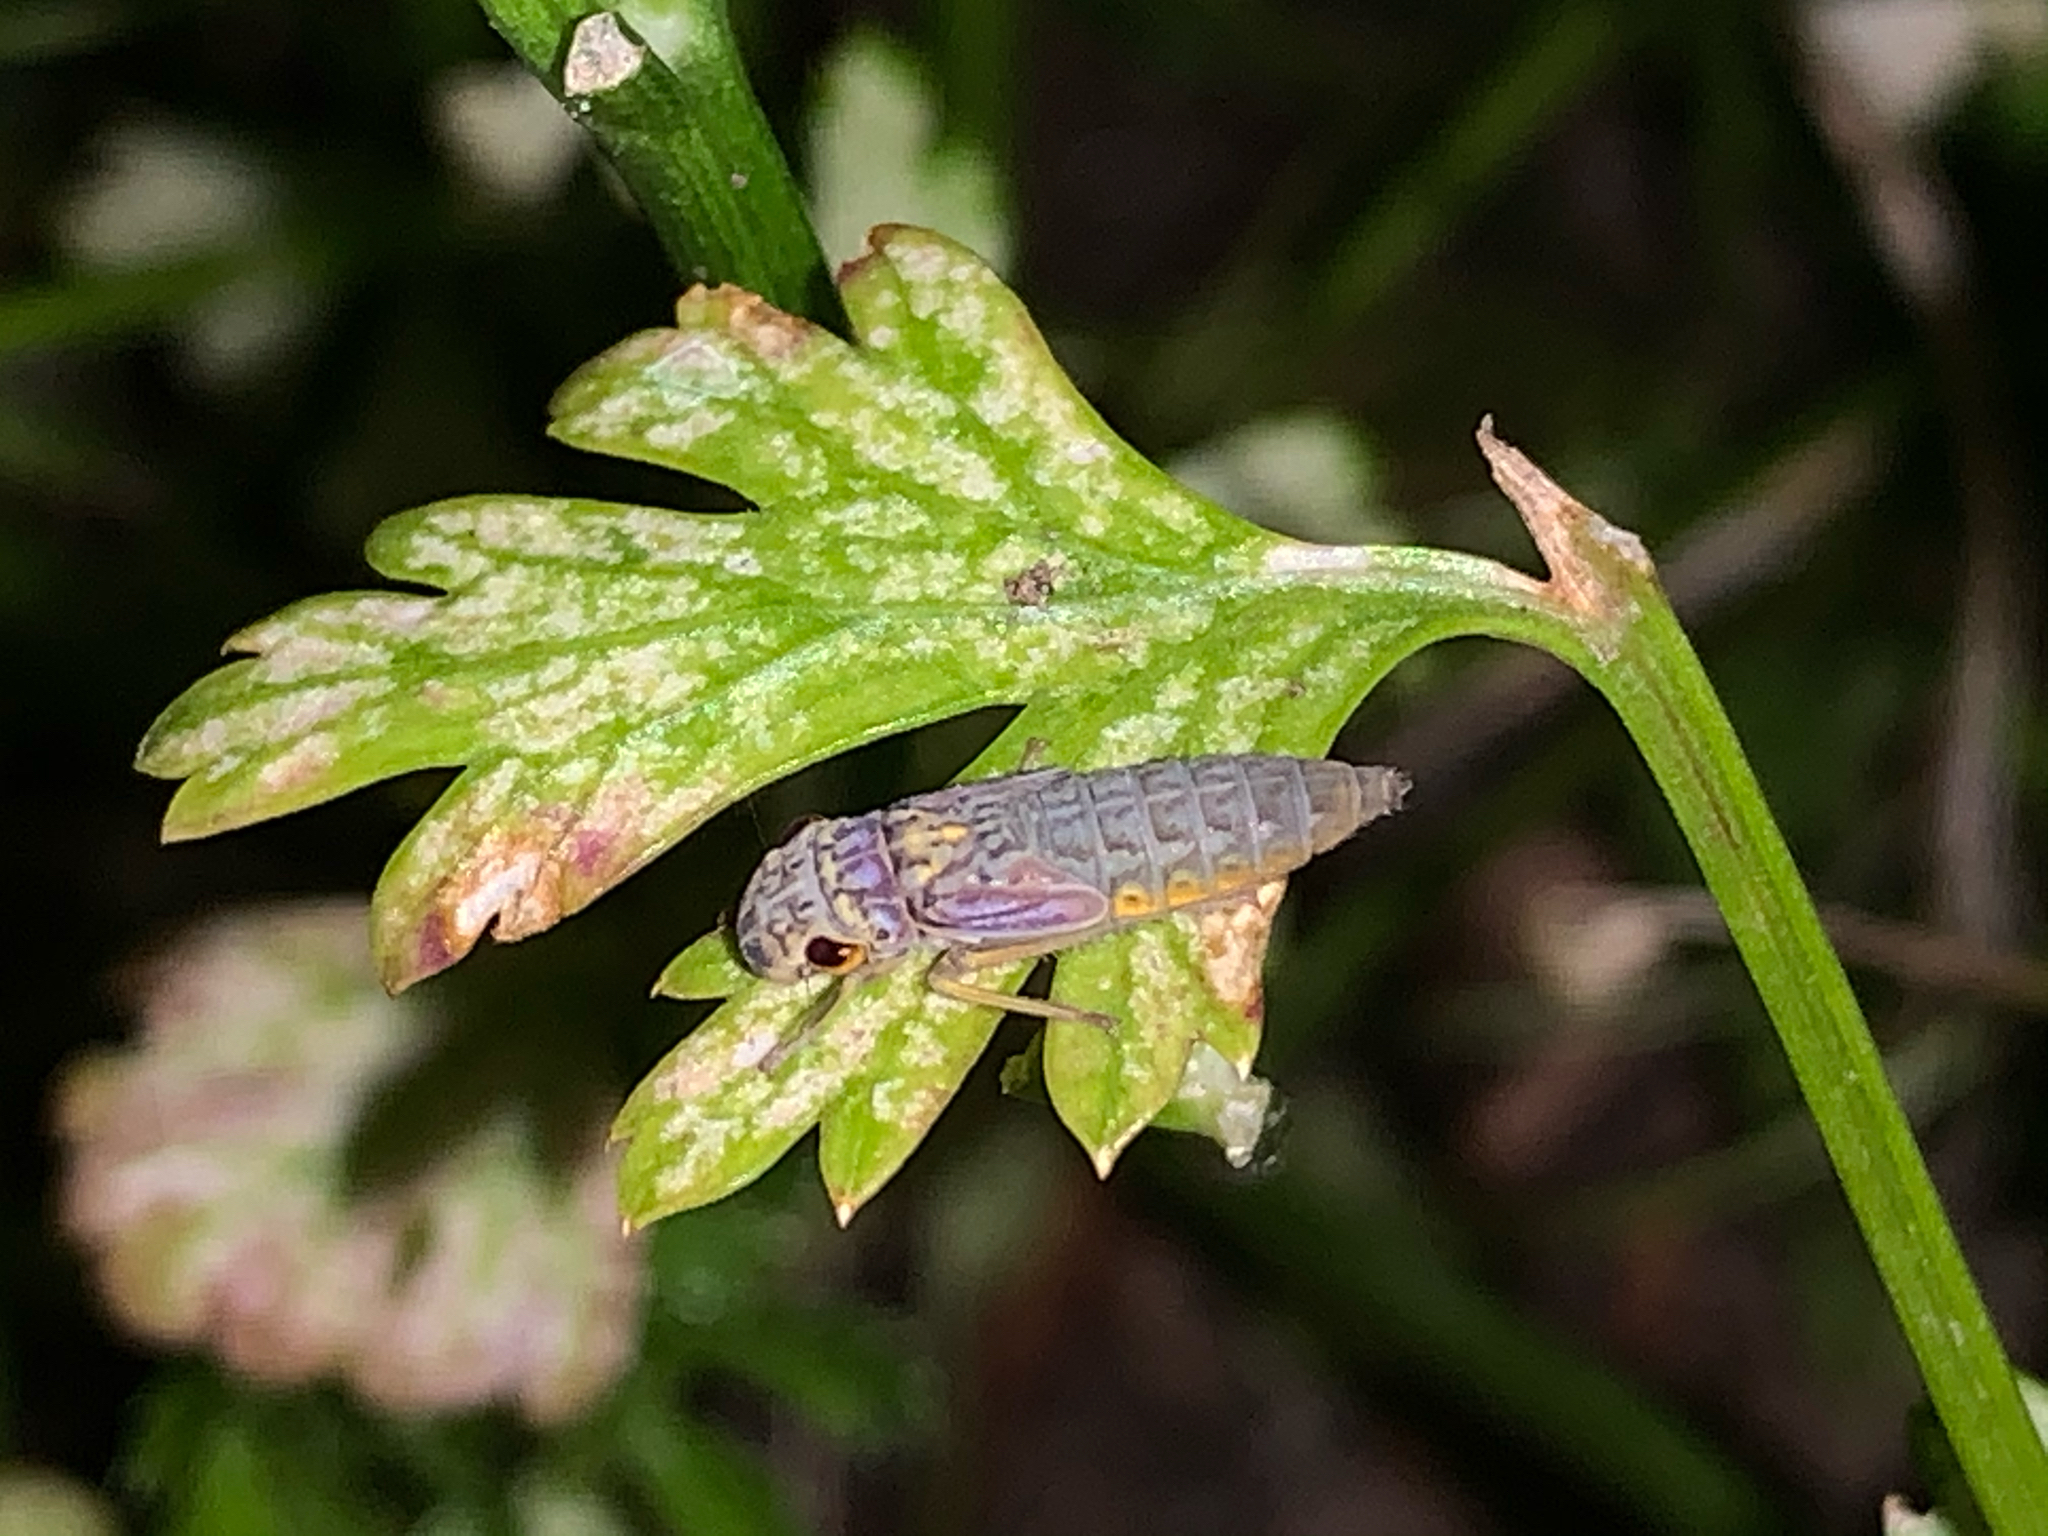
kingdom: Animalia
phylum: Arthropoda
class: Insecta
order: Hemiptera
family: Cicadellidae
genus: Oncometopia
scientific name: Oncometopia orbona
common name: Broad-headed sharpshooter
